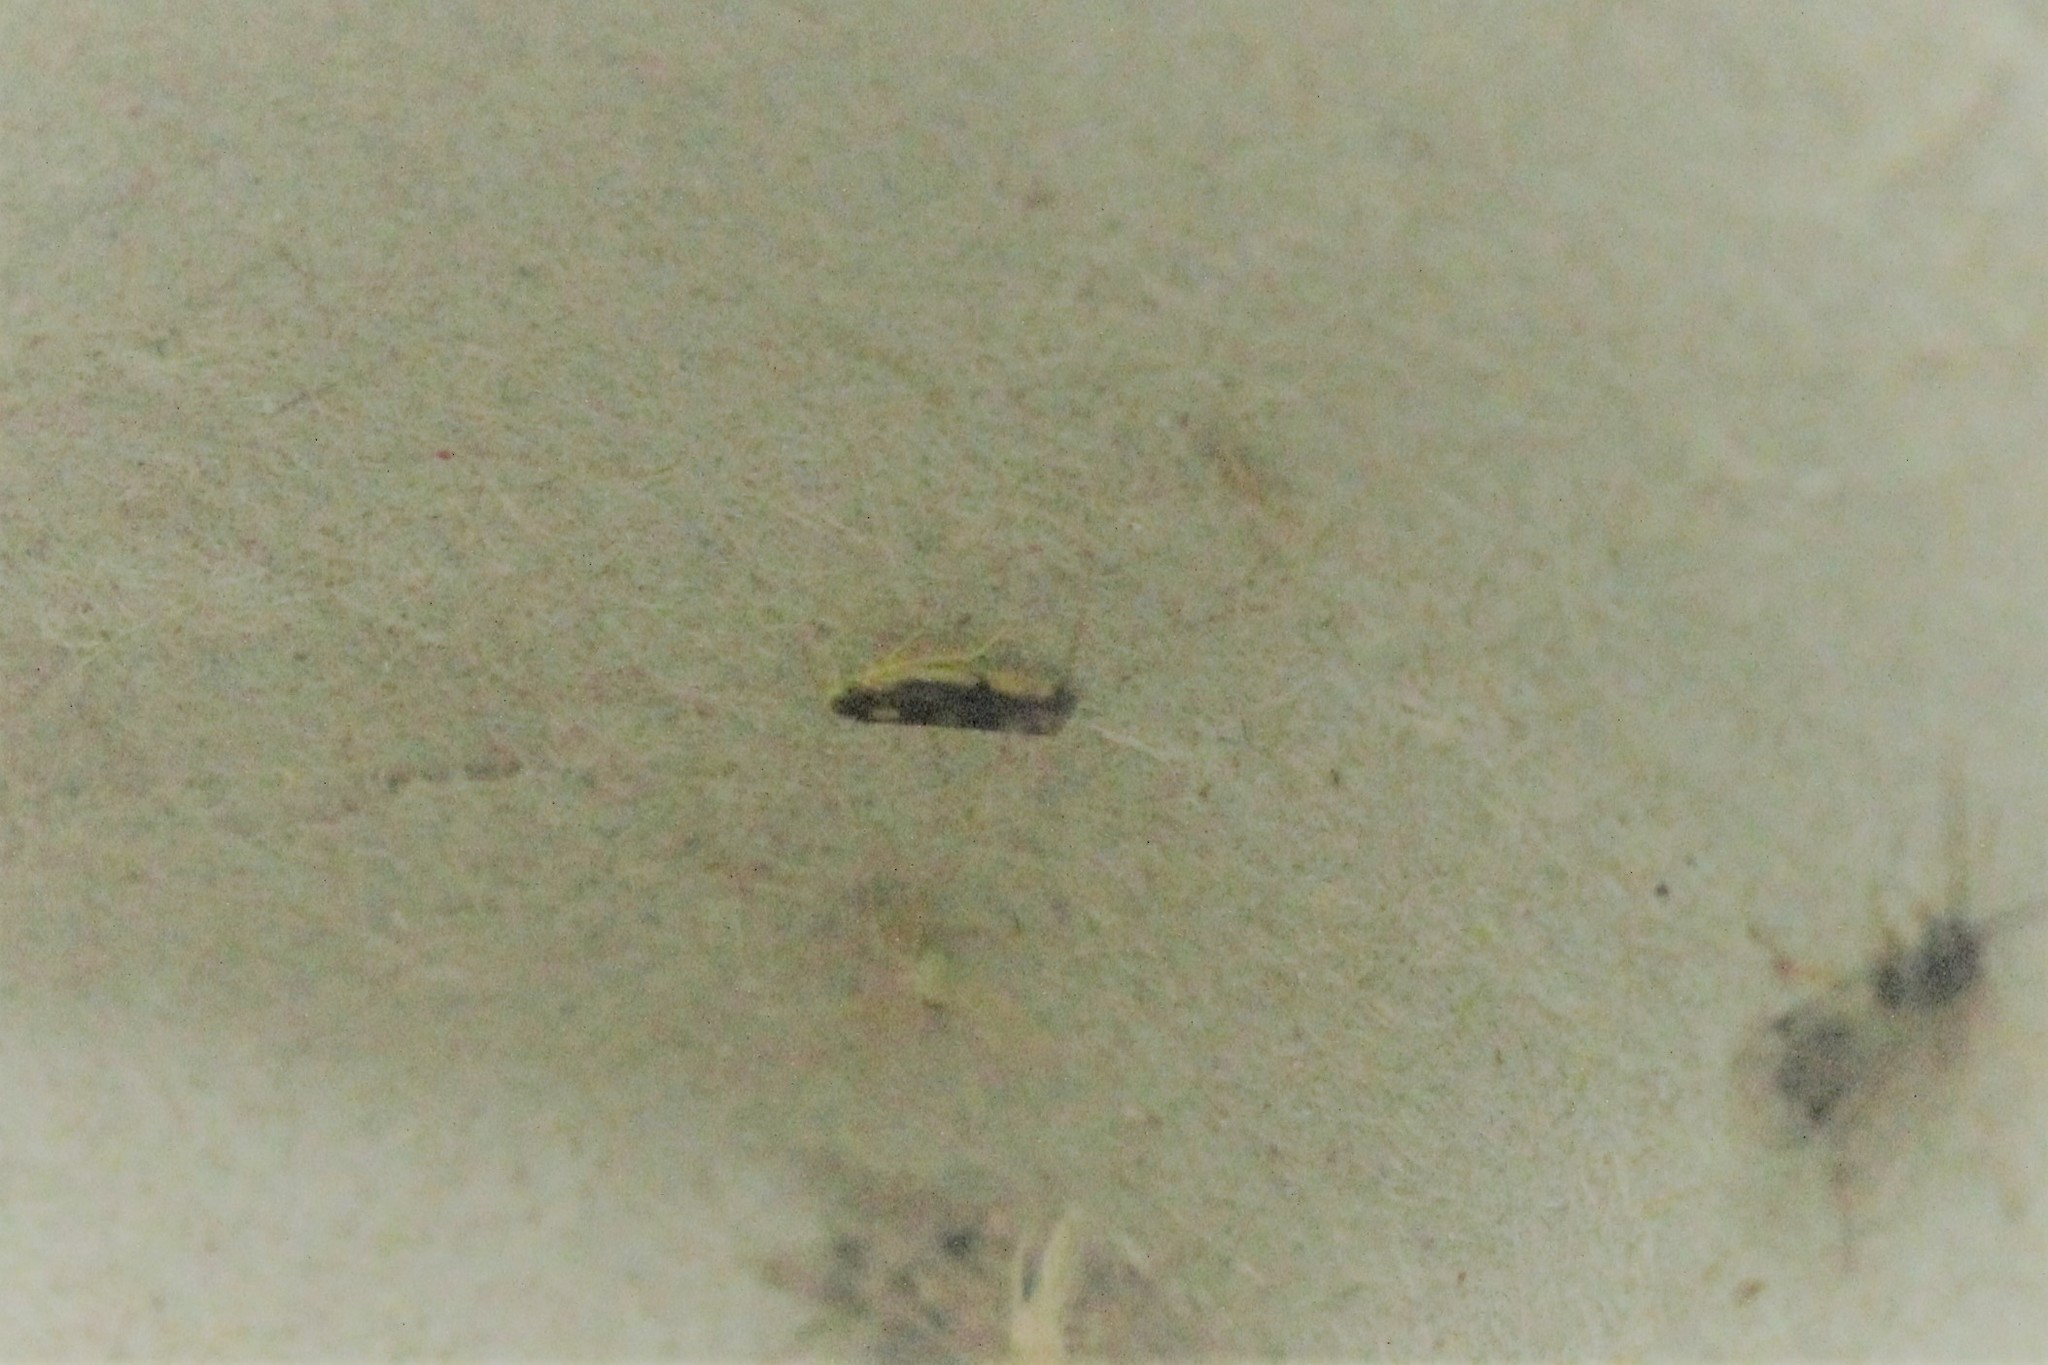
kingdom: Animalia
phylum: Arthropoda
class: Insecta
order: Hemiptera
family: Cicadellidae
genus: Eupteryx
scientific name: Eupteryx flavoscuta
